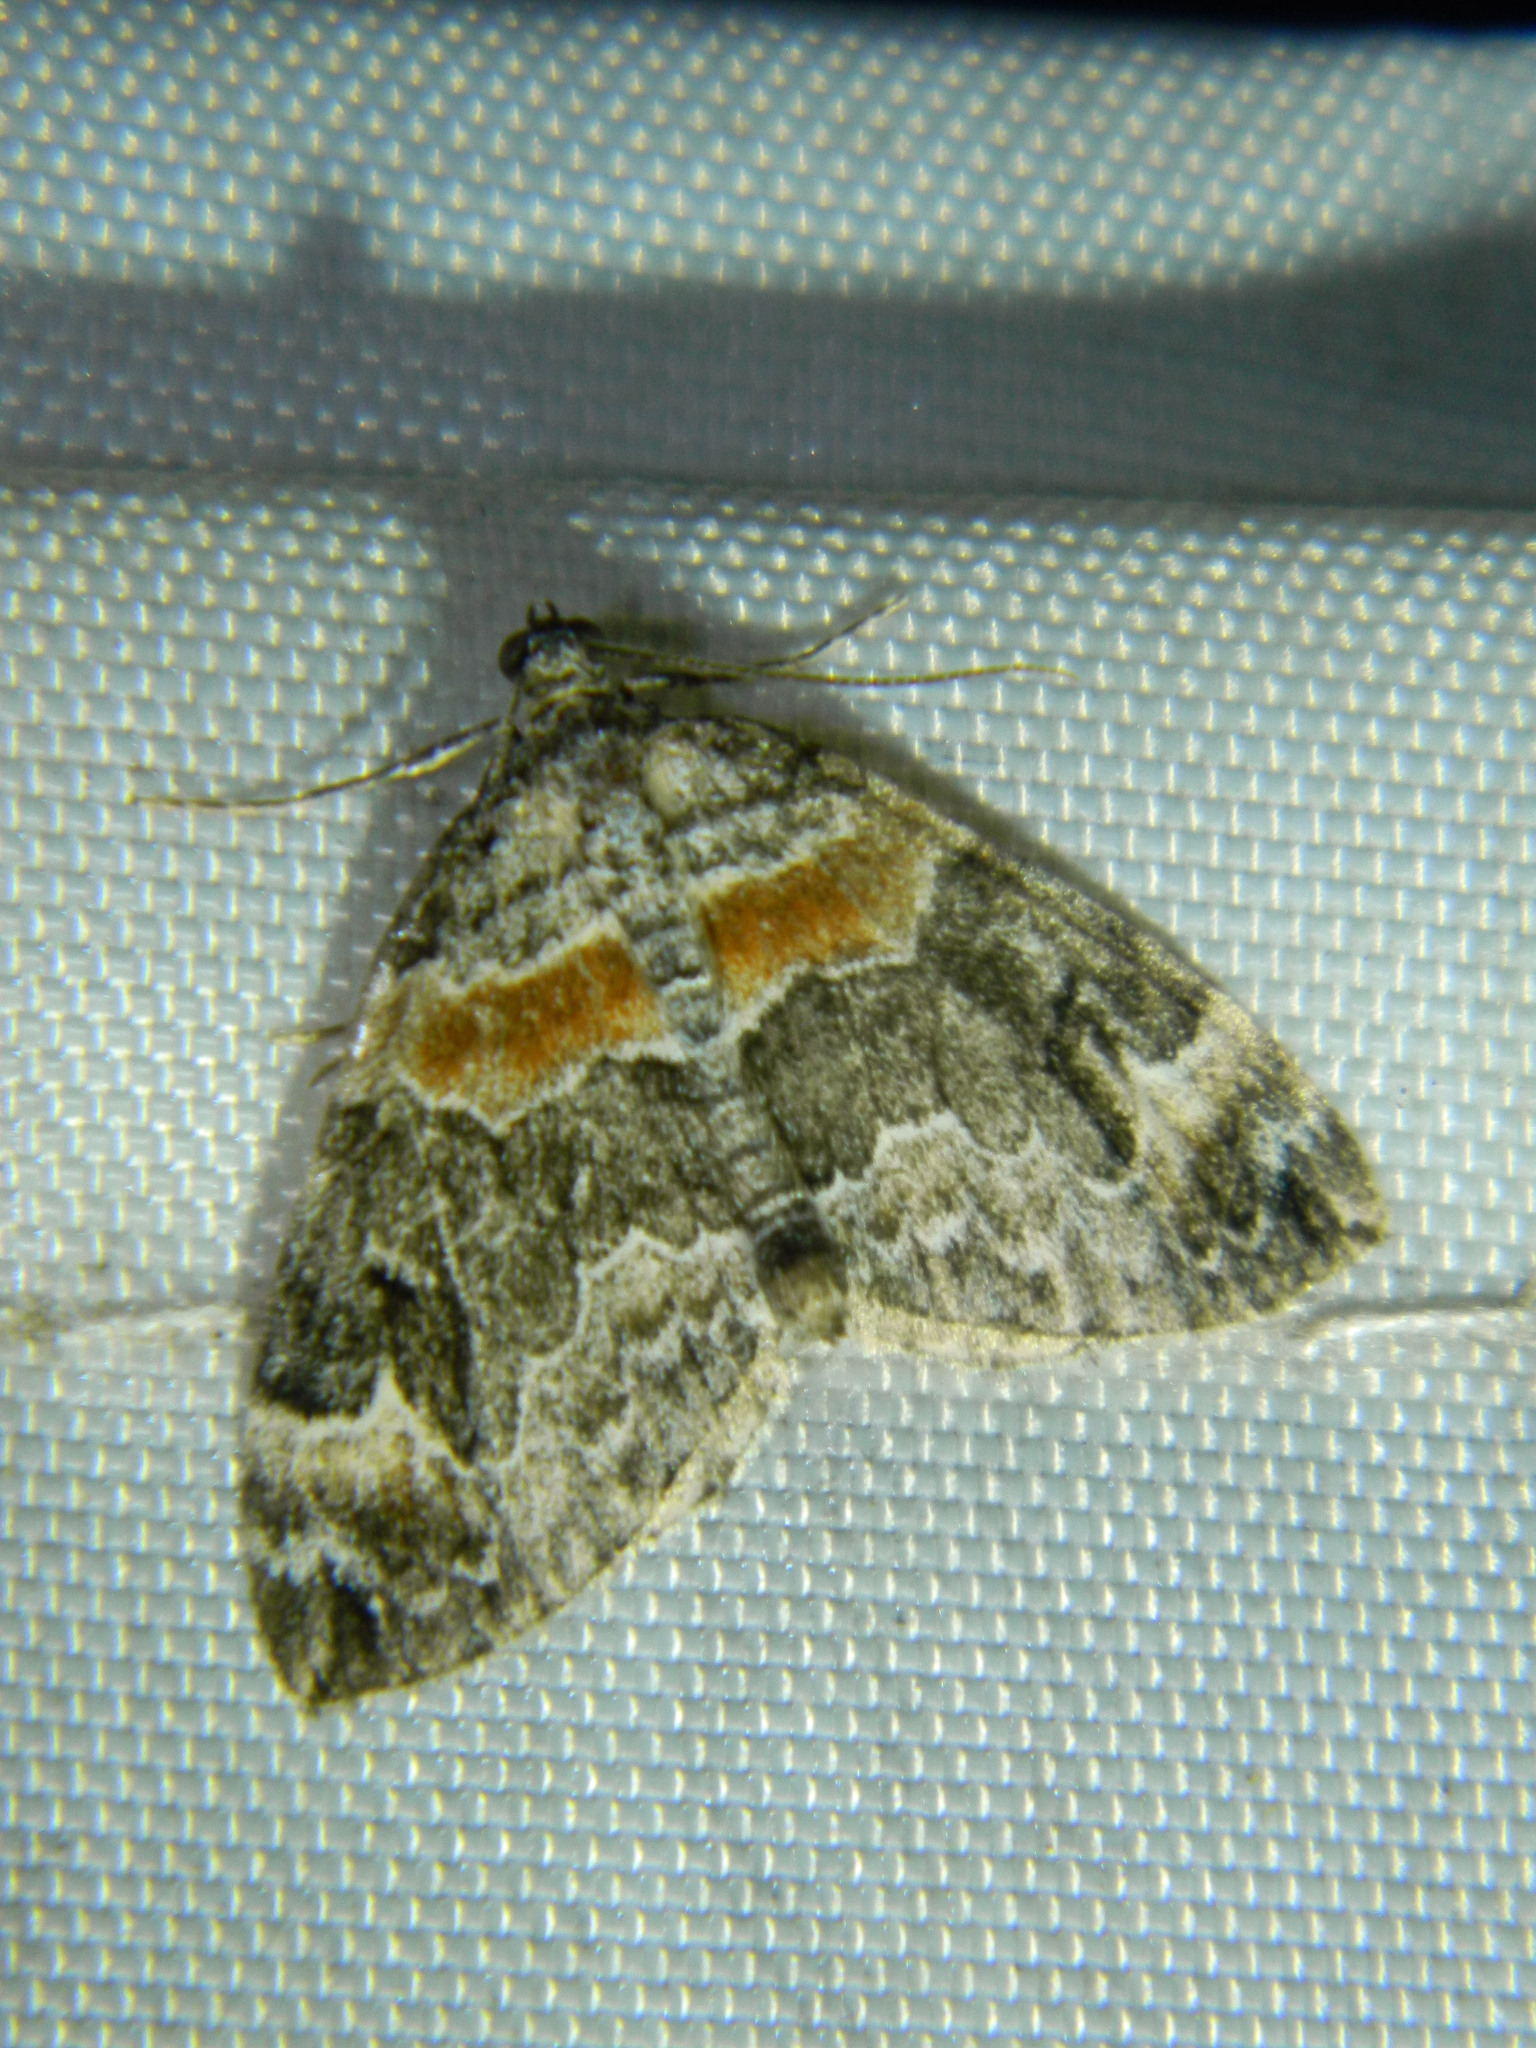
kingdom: Animalia
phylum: Arthropoda
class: Insecta
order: Lepidoptera
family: Geometridae
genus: Dysstroma
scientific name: Dysstroma hersiliata
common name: Orange-barred carpet
